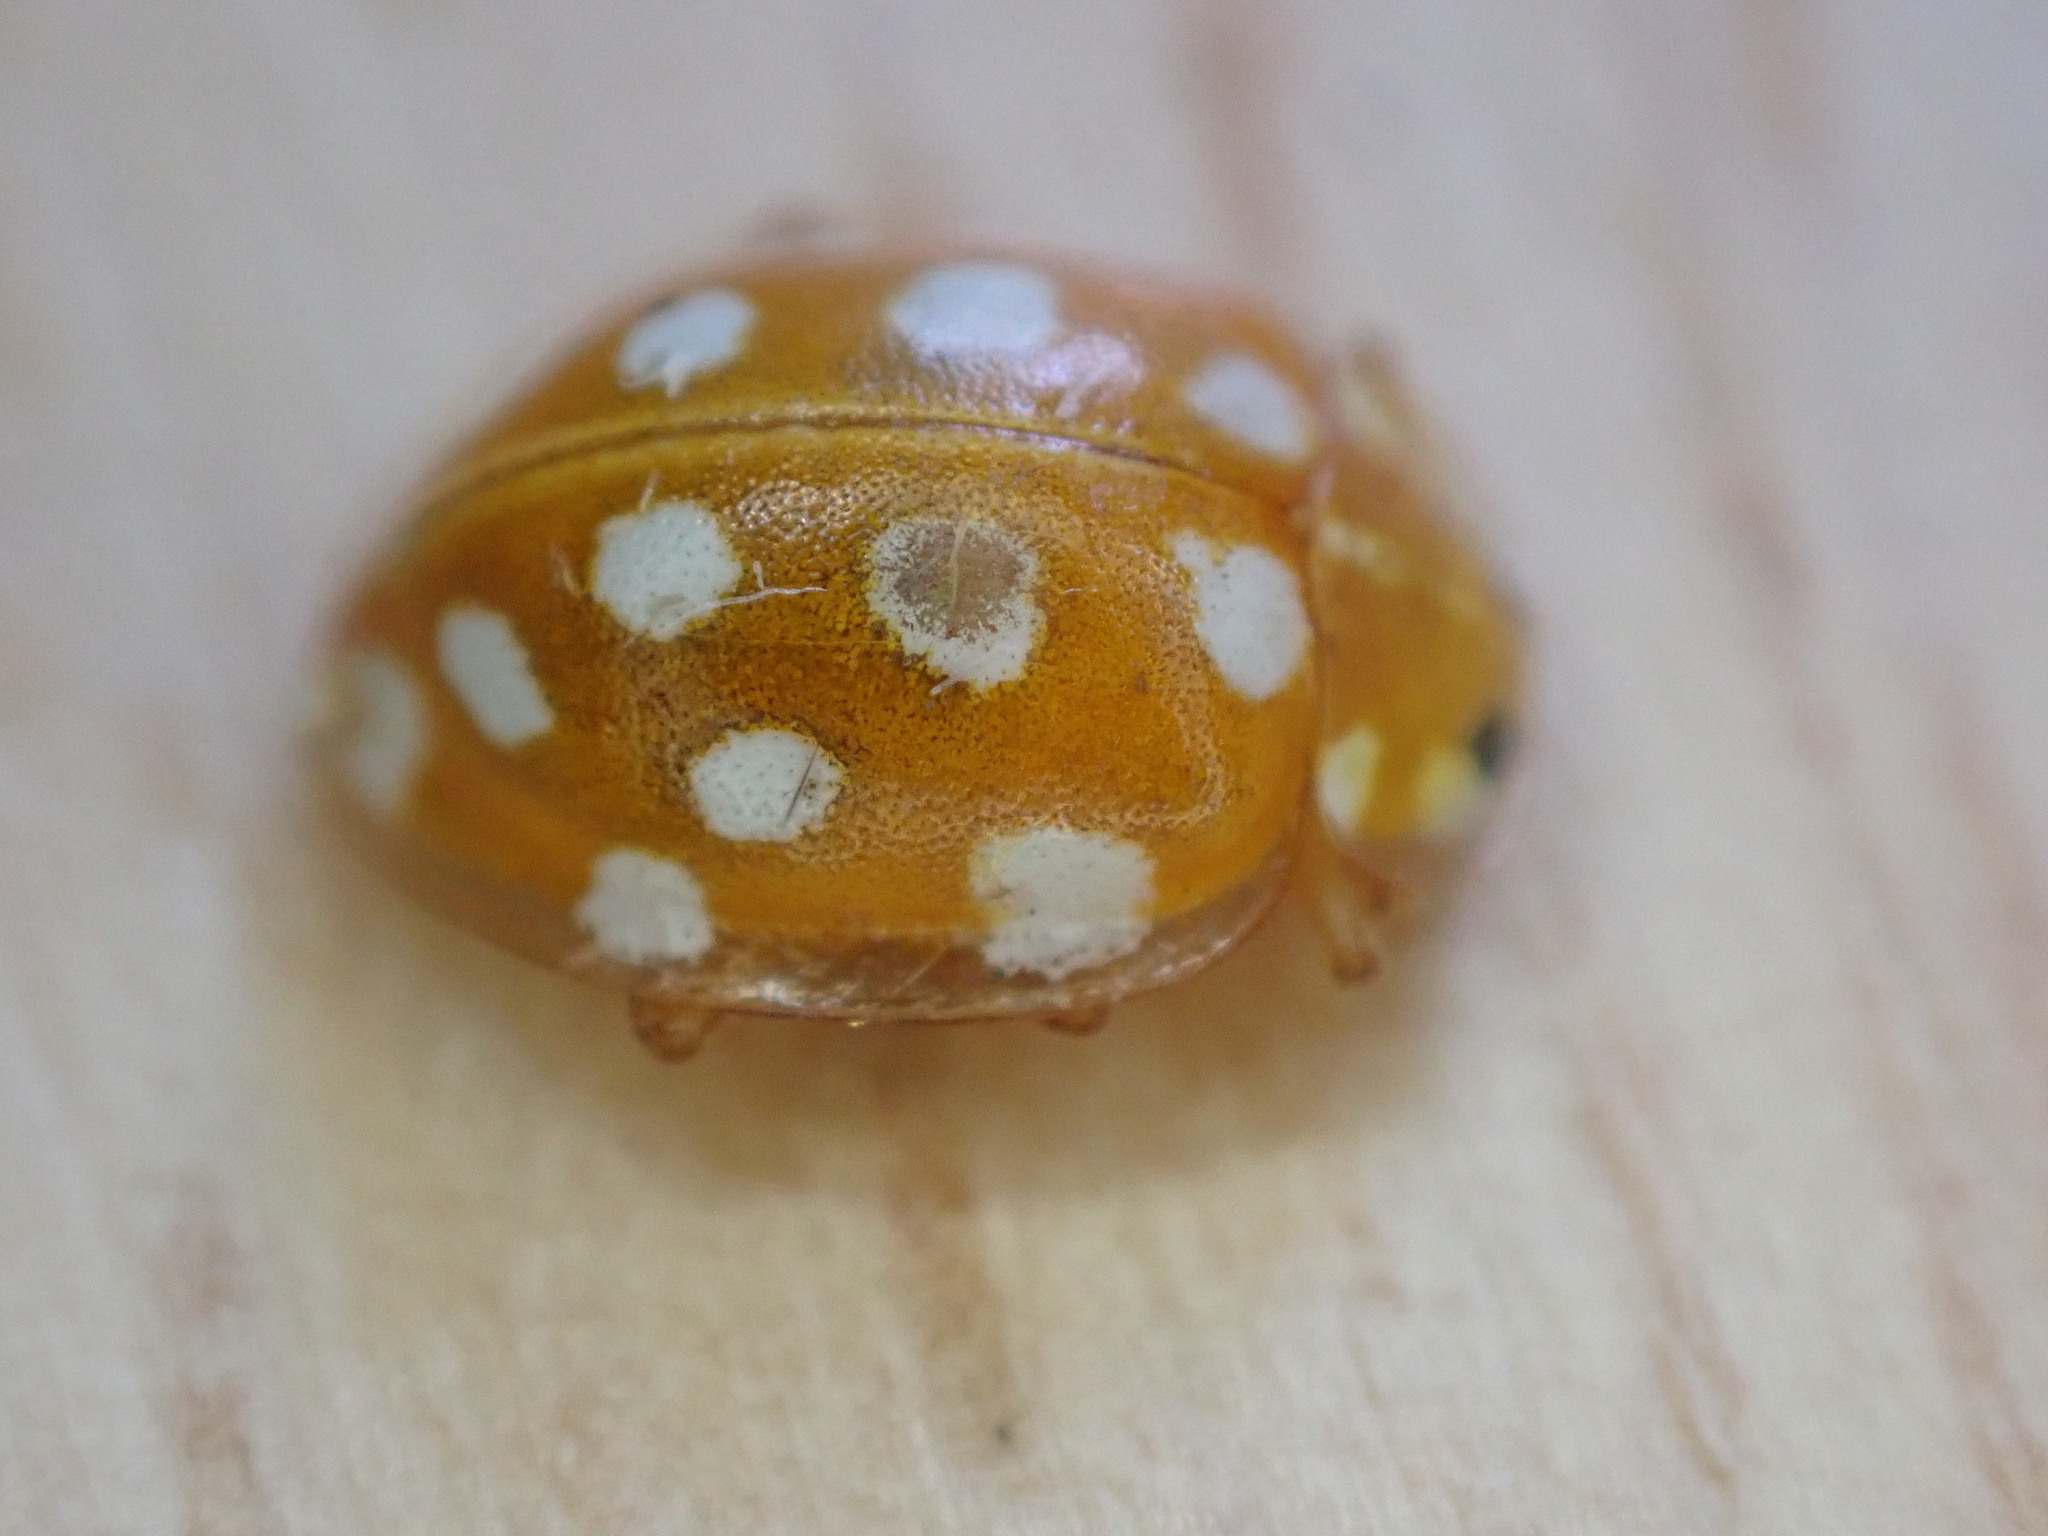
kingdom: Animalia
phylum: Arthropoda
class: Insecta
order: Coleoptera
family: Coccinellidae
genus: Halyzia
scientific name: Halyzia sedecimguttata
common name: Orange ladybird
